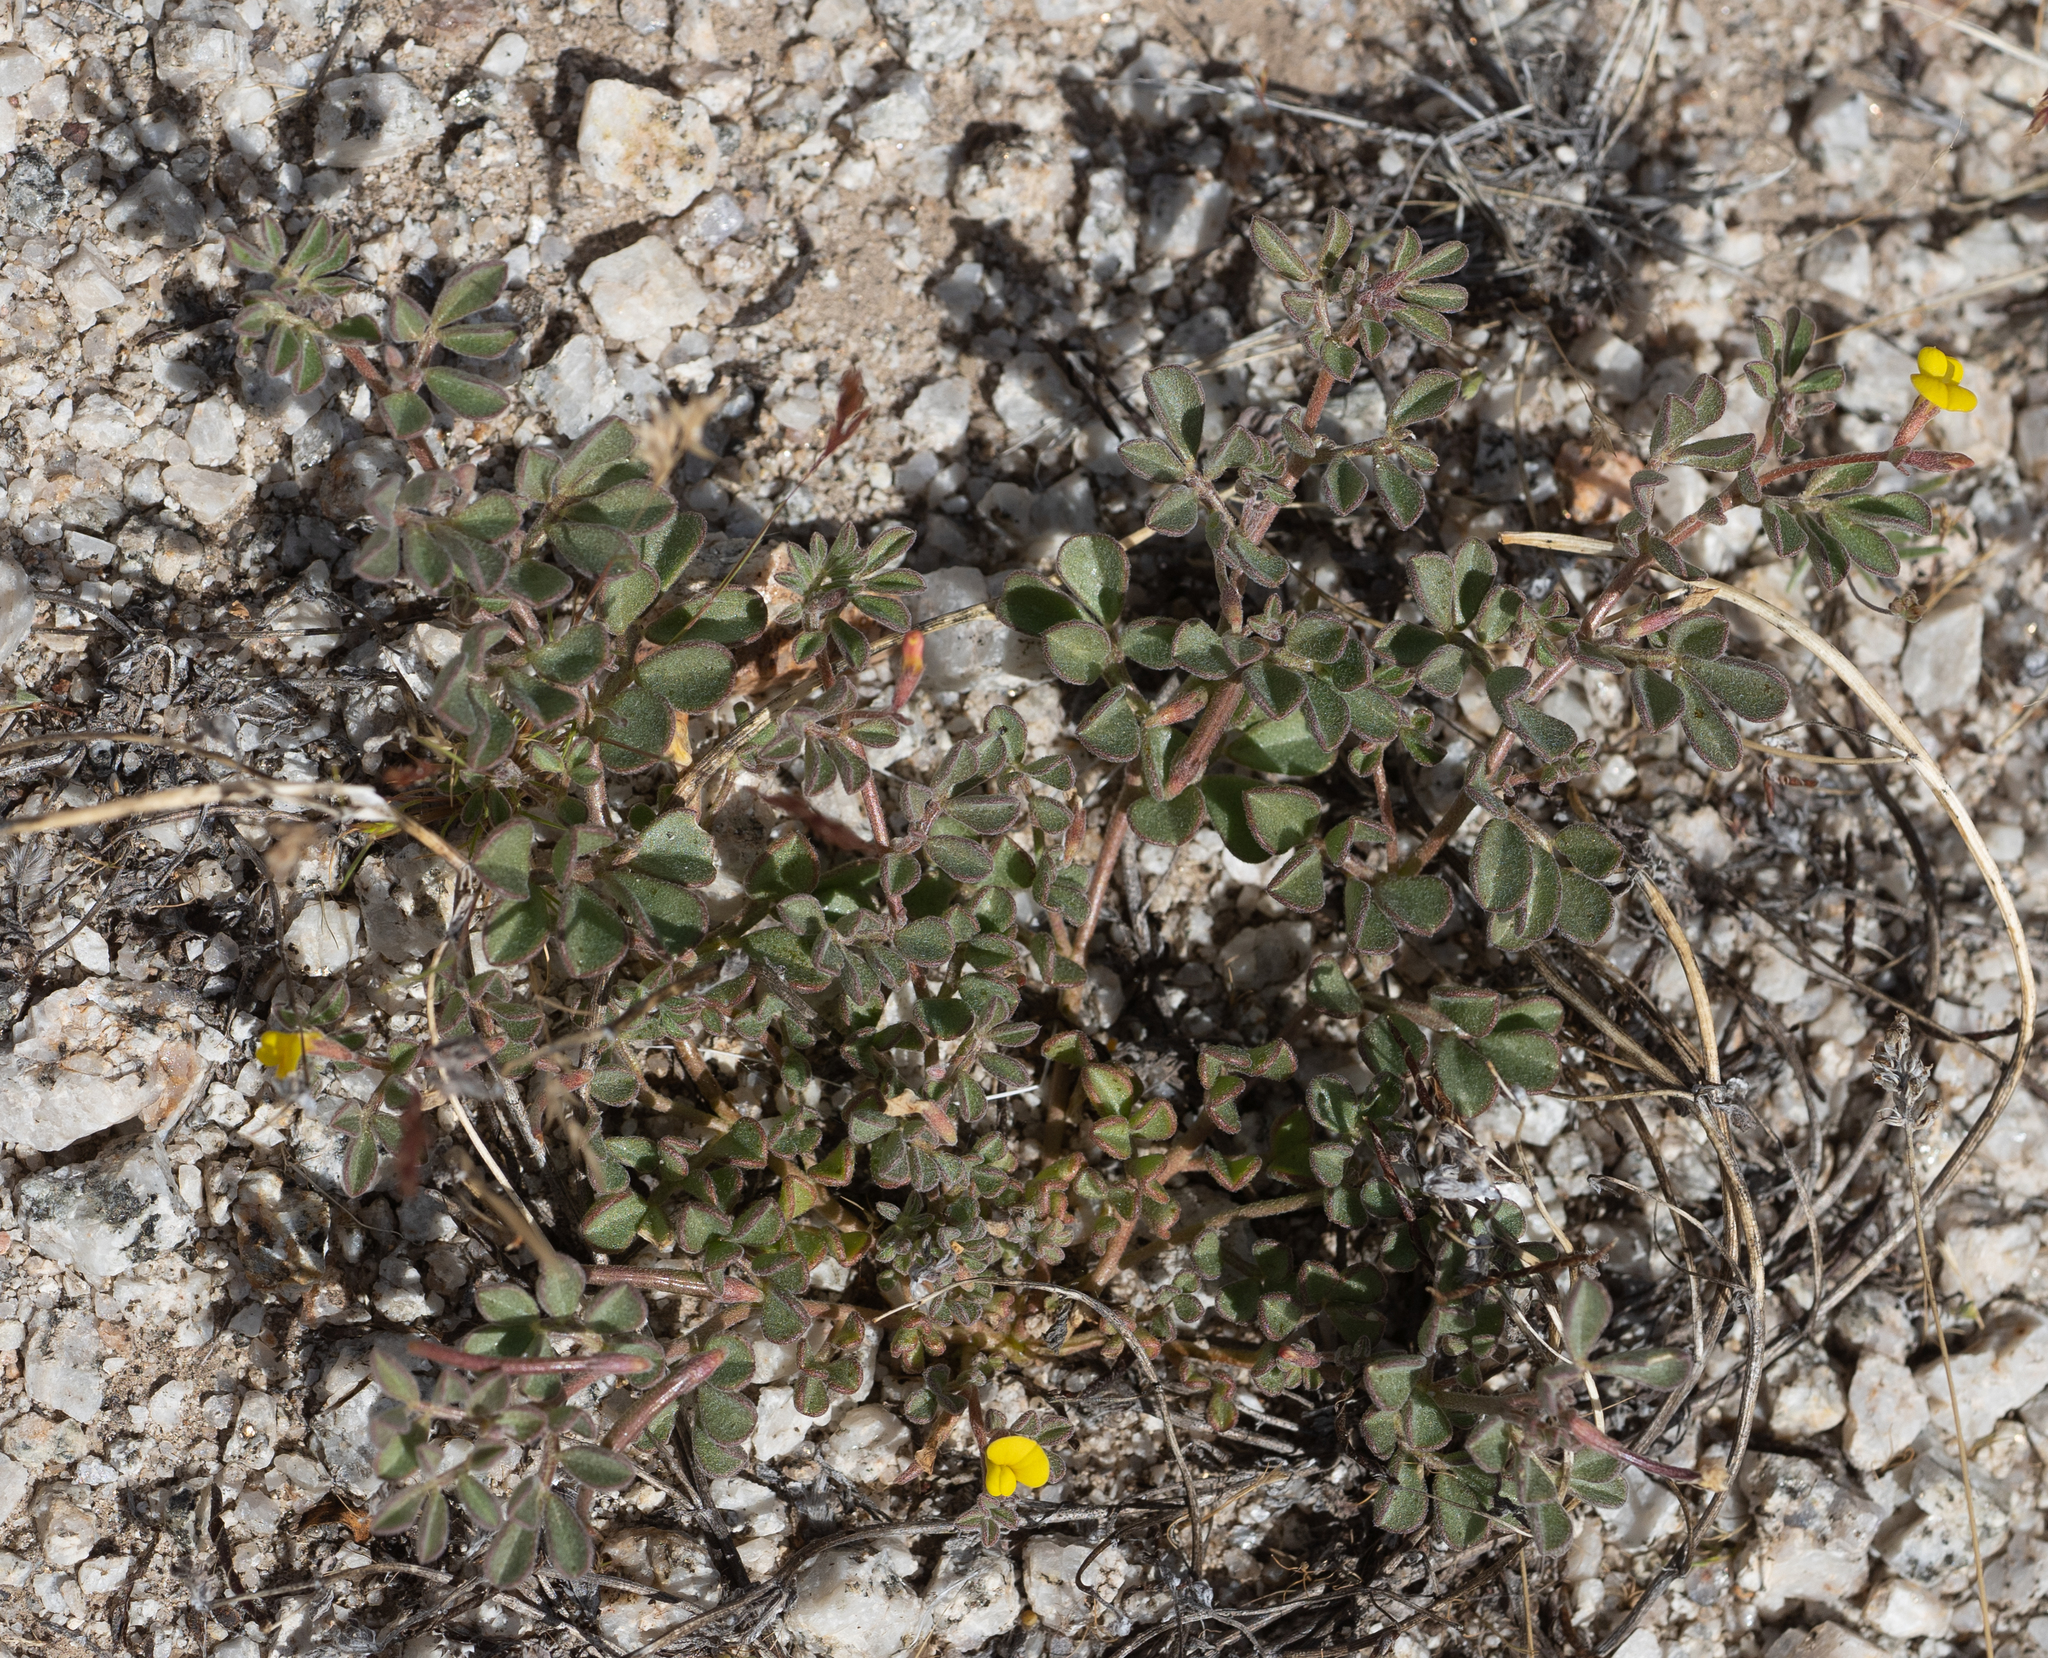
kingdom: Plantae
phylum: Tracheophyta
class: Magnoliopsida
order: Fabales
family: Fabaceae
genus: Acmispon
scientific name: Acmispon strigosus
